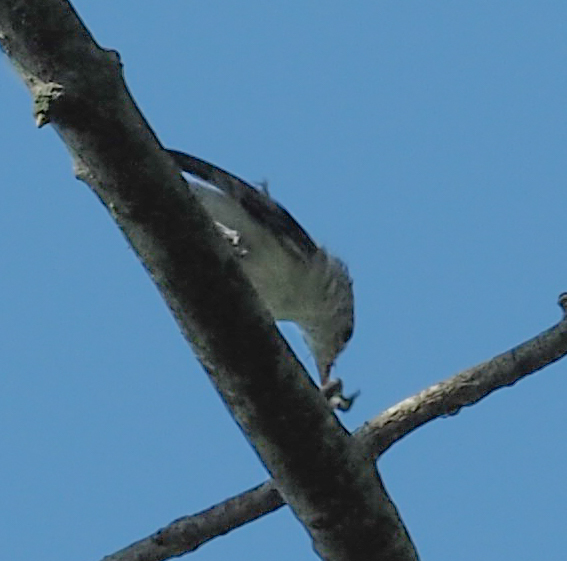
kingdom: Animalia
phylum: Chordata
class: Aves
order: Passeriformes
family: Sittidae
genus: Sitta
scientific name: Sitta carolinensis
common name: White-breasted nuthatch
